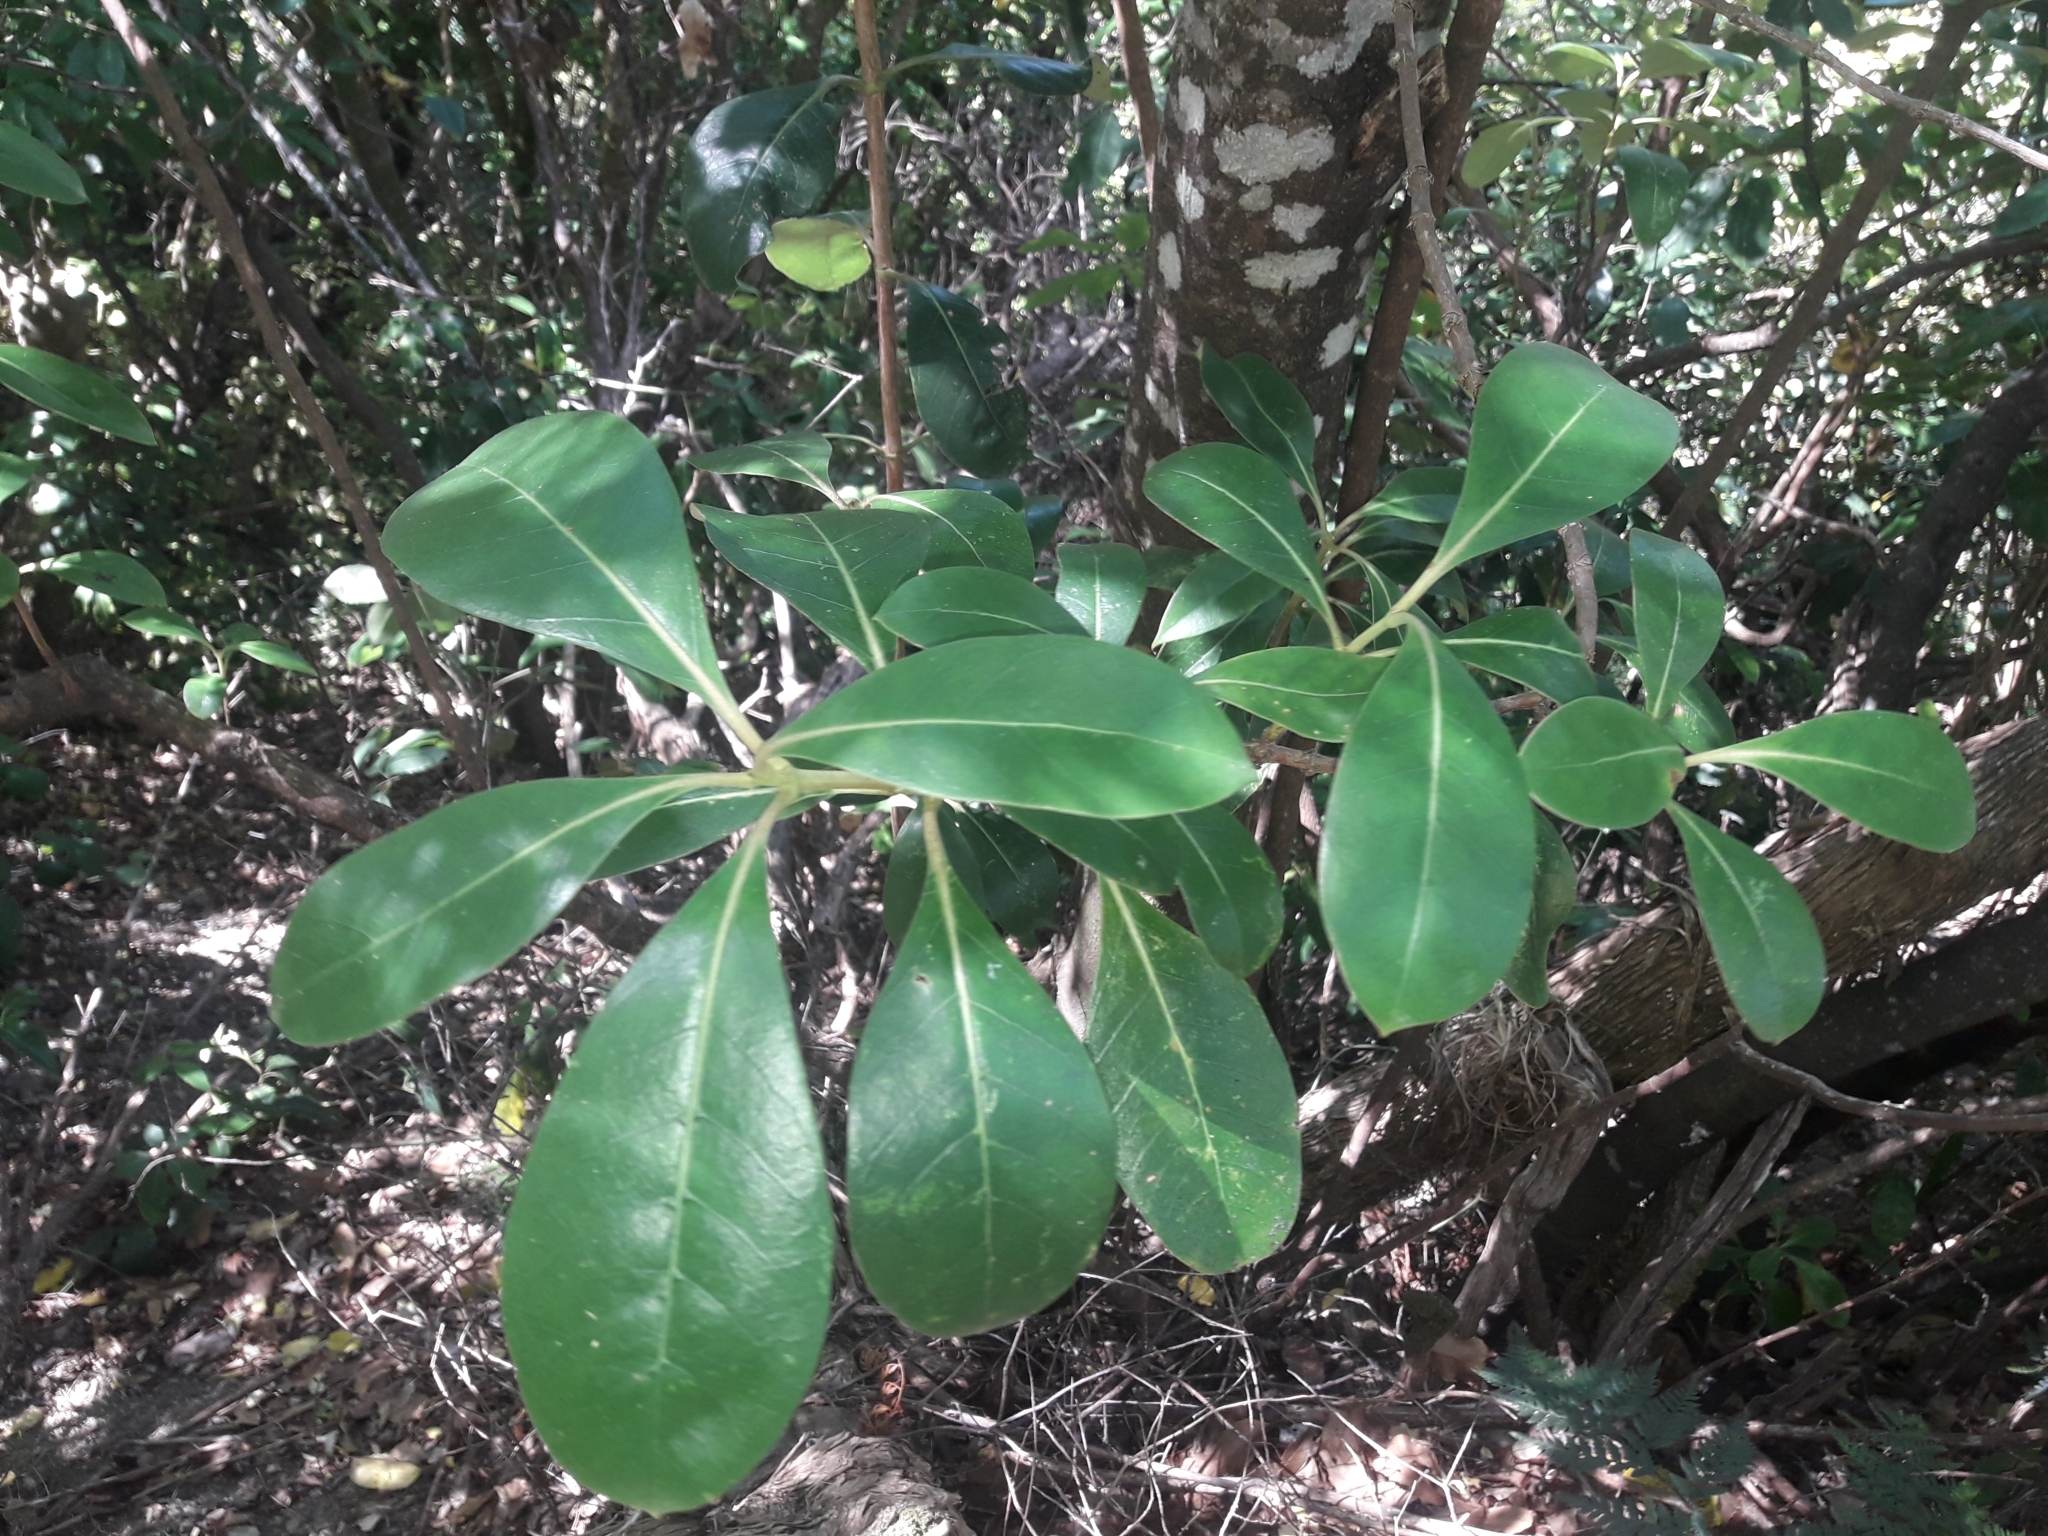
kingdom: Plantae
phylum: Tracheophyta
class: Magnoliopsida
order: Gentianales
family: Rubiaceae
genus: Coprosma
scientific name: Coprosma lucida
